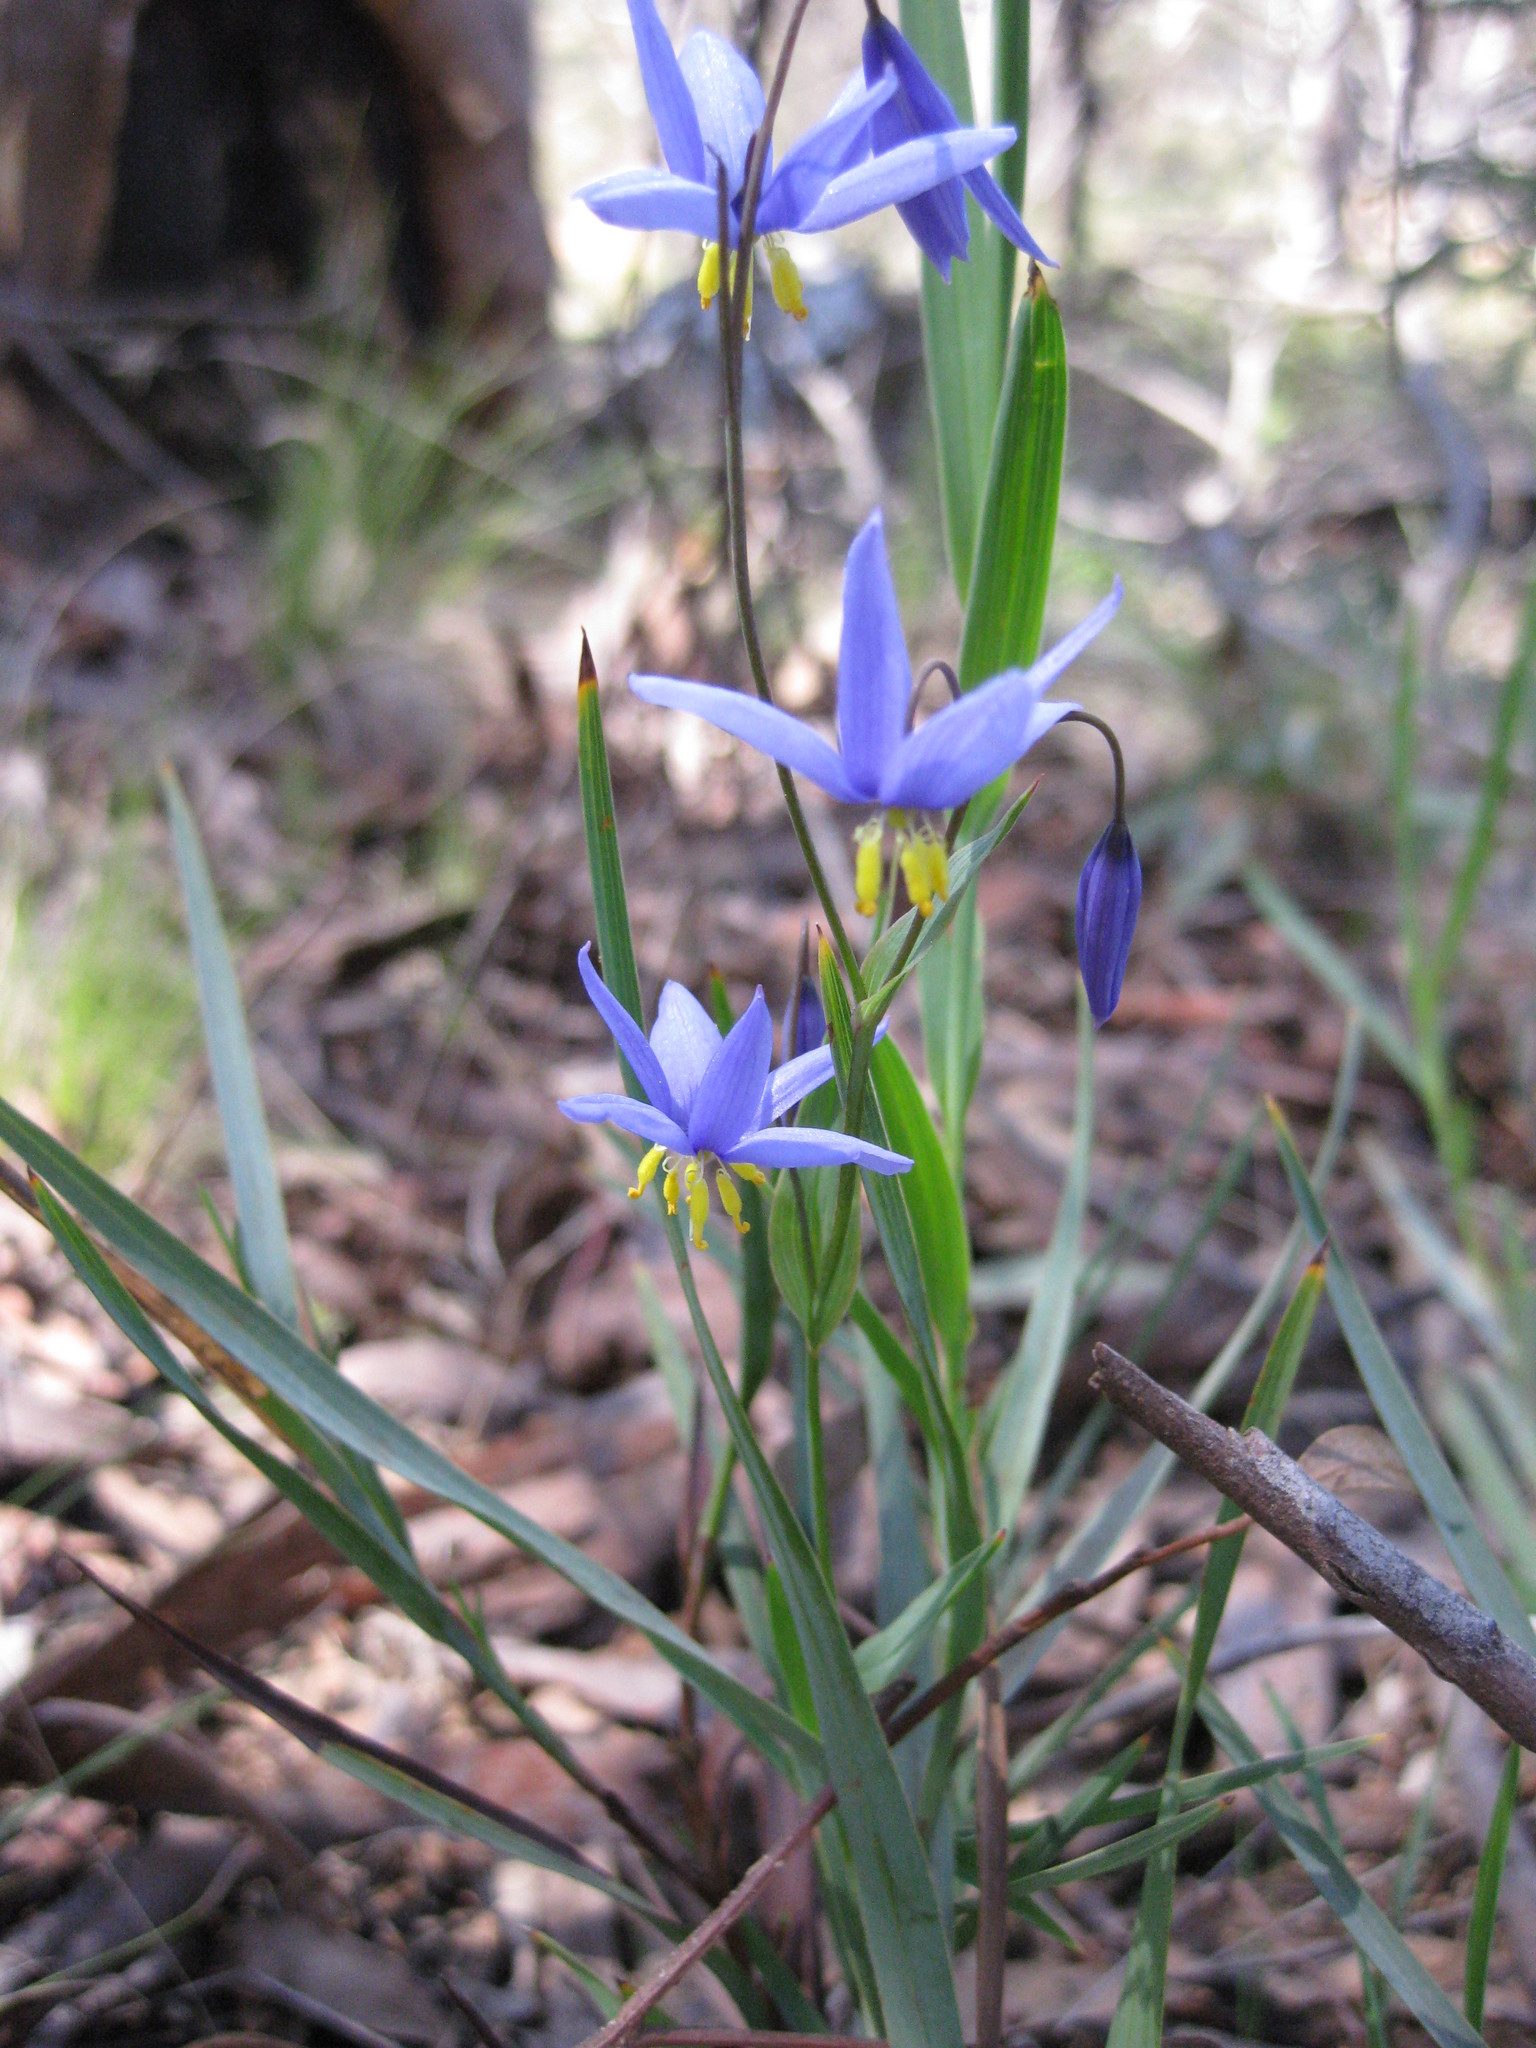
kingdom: Plantae
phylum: Tracheophyta
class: Liliopsida
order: Asparagales
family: Asphodelaceae
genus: Stypandra
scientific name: Stypandra glauca
